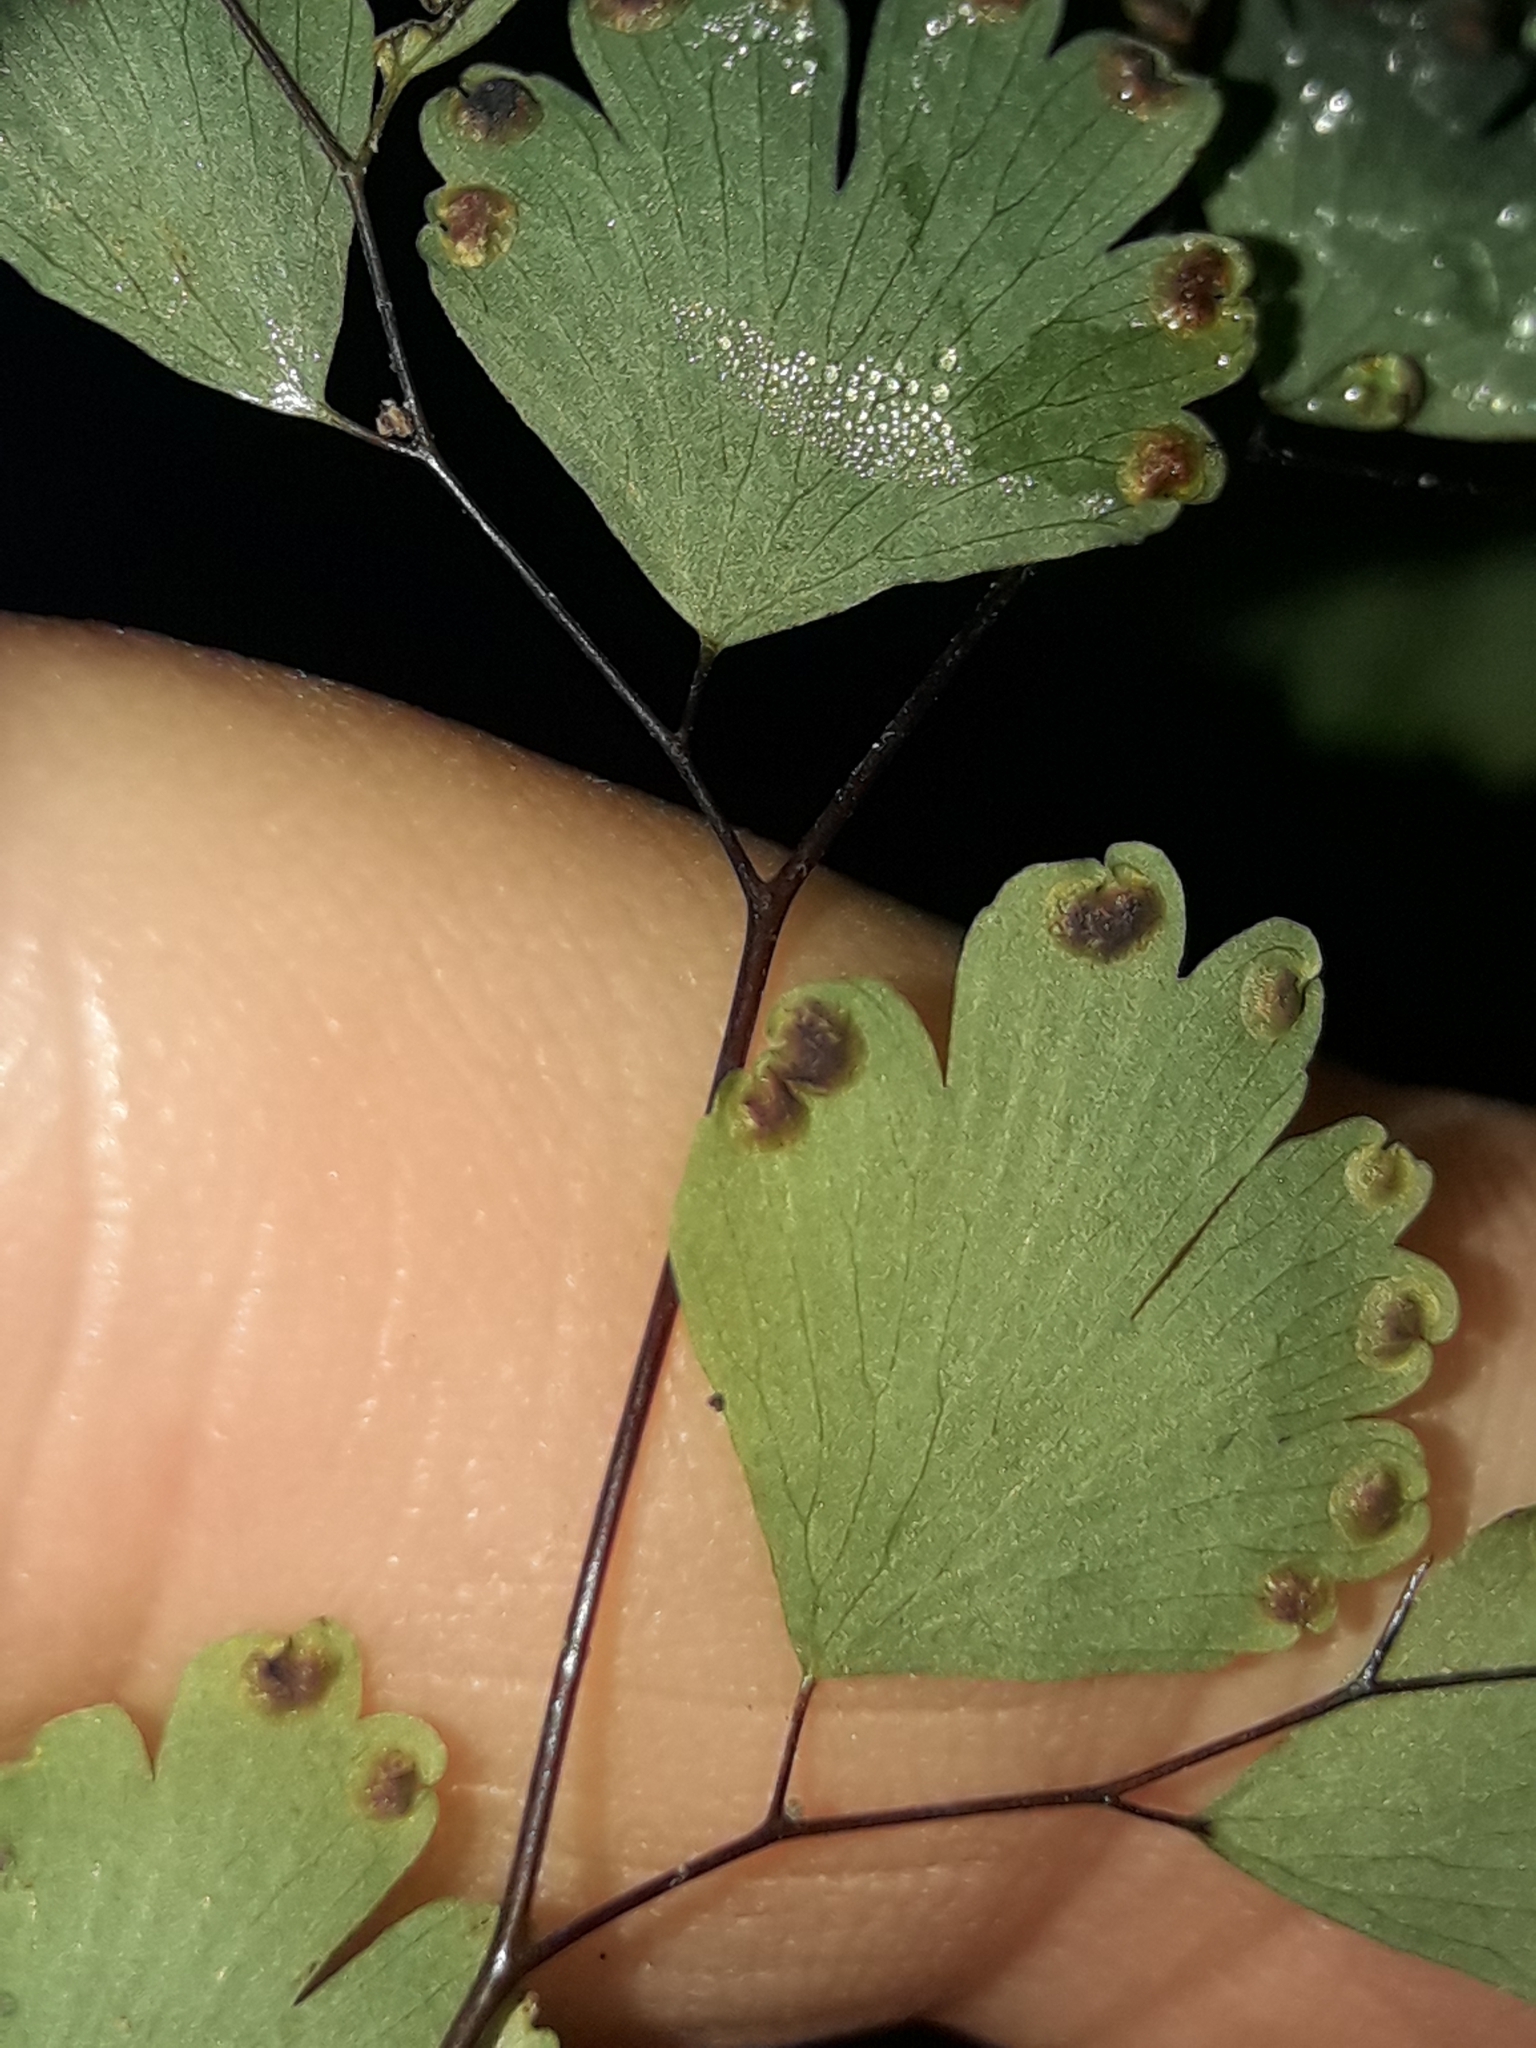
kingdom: Plantae
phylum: Tracheophyta
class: Polypodiopsida
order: Polypodiales
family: Pteridaceae
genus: Adiantum
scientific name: Adiantum raddianum
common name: Delta maidenhair fern
